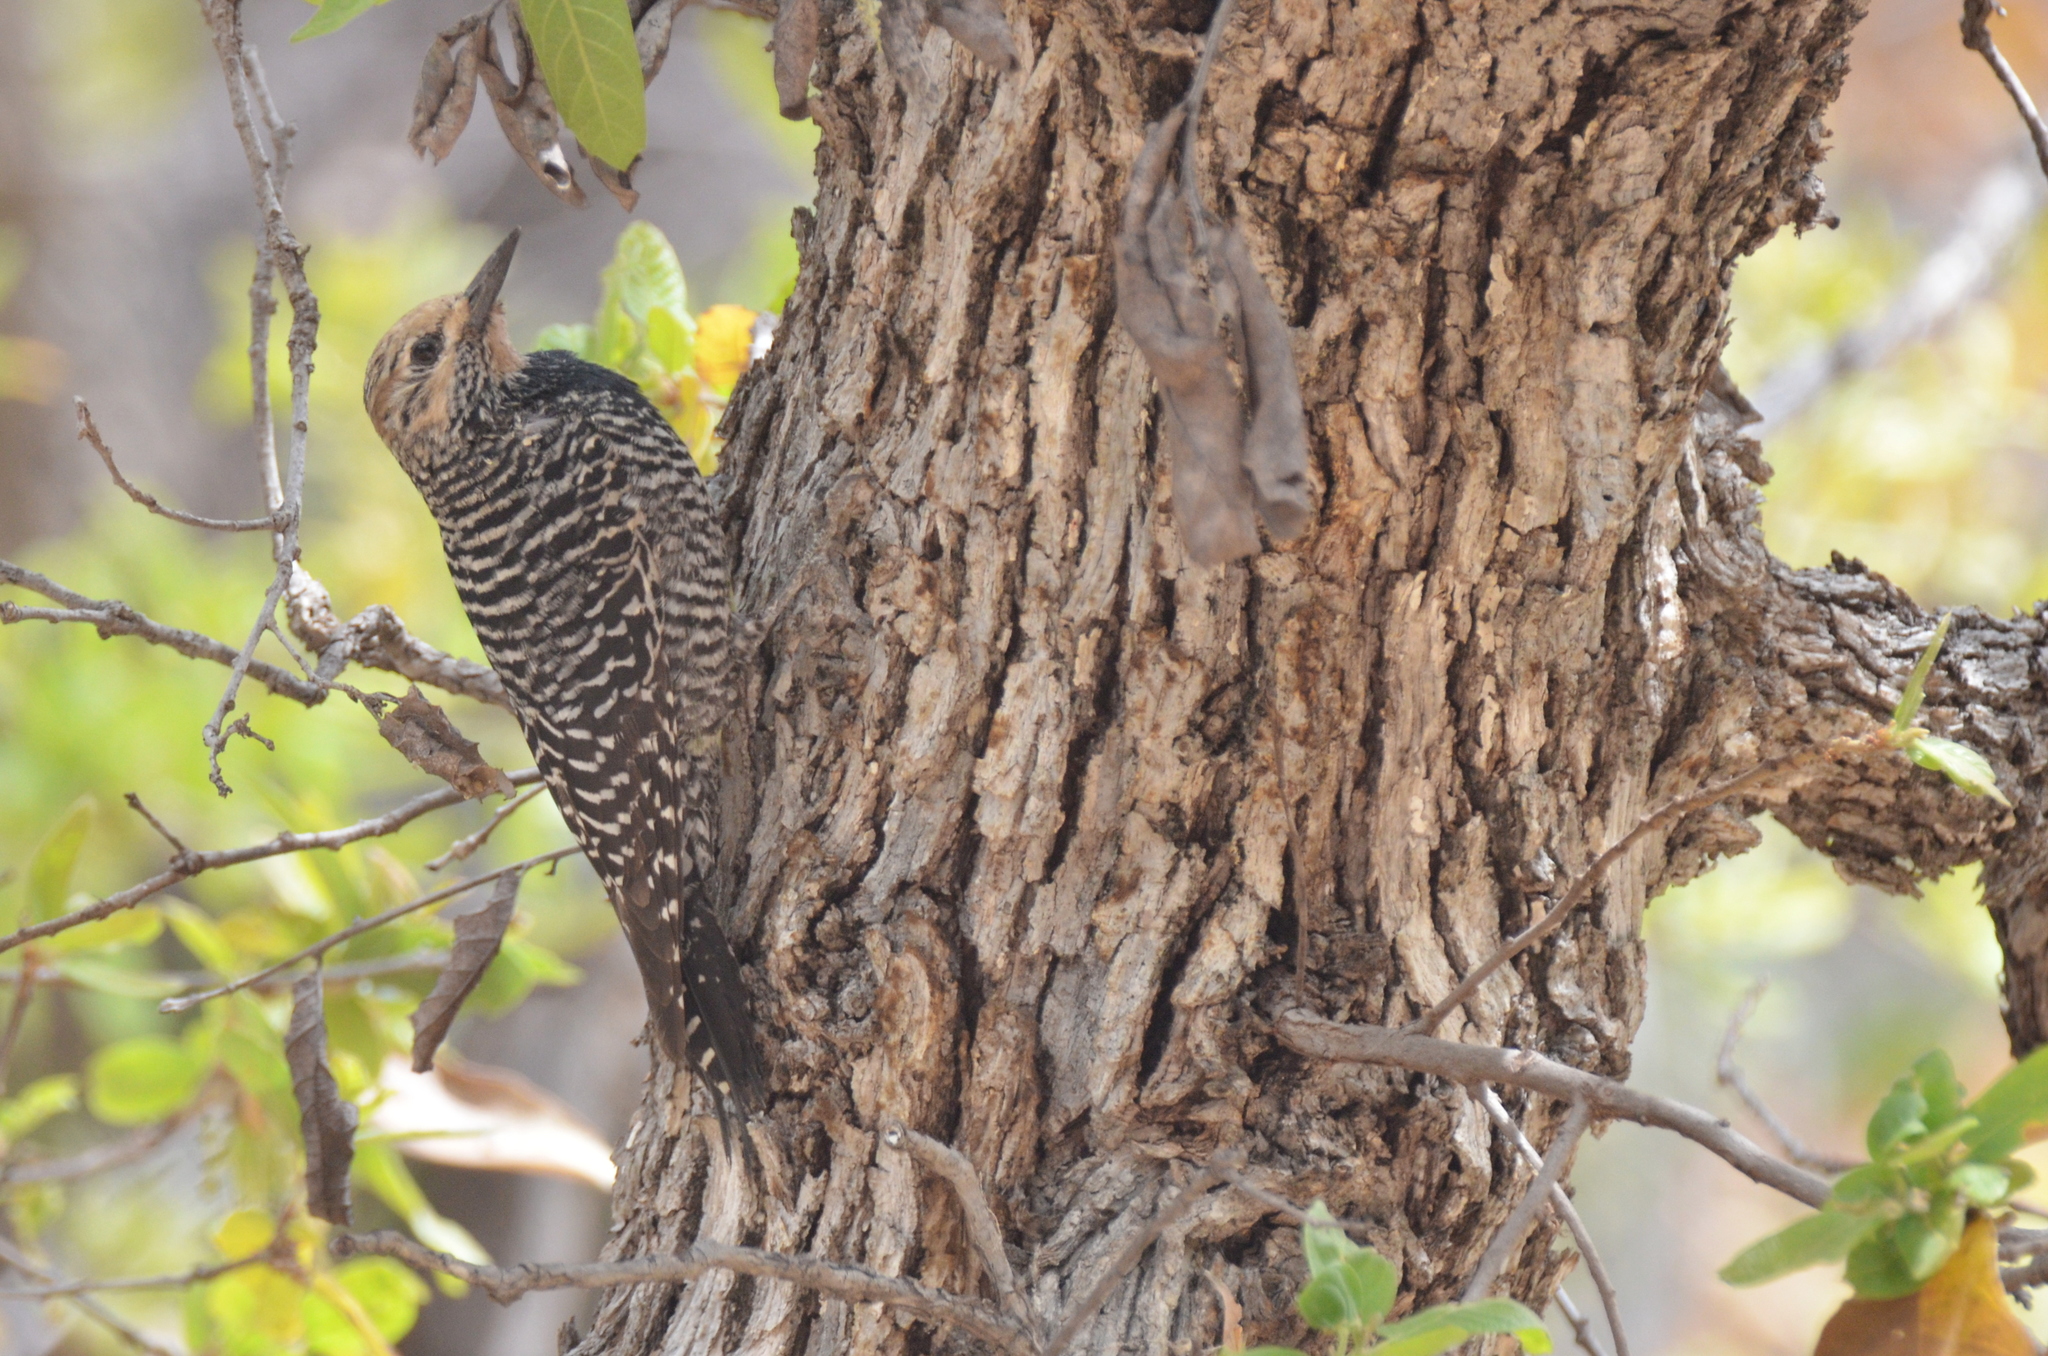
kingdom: Animalia
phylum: Chordata
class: Aves
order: Piciformes
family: Picidae
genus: Sphyrapicus
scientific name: Sphyrapicus thyroideus
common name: Williamson's sapsucker
